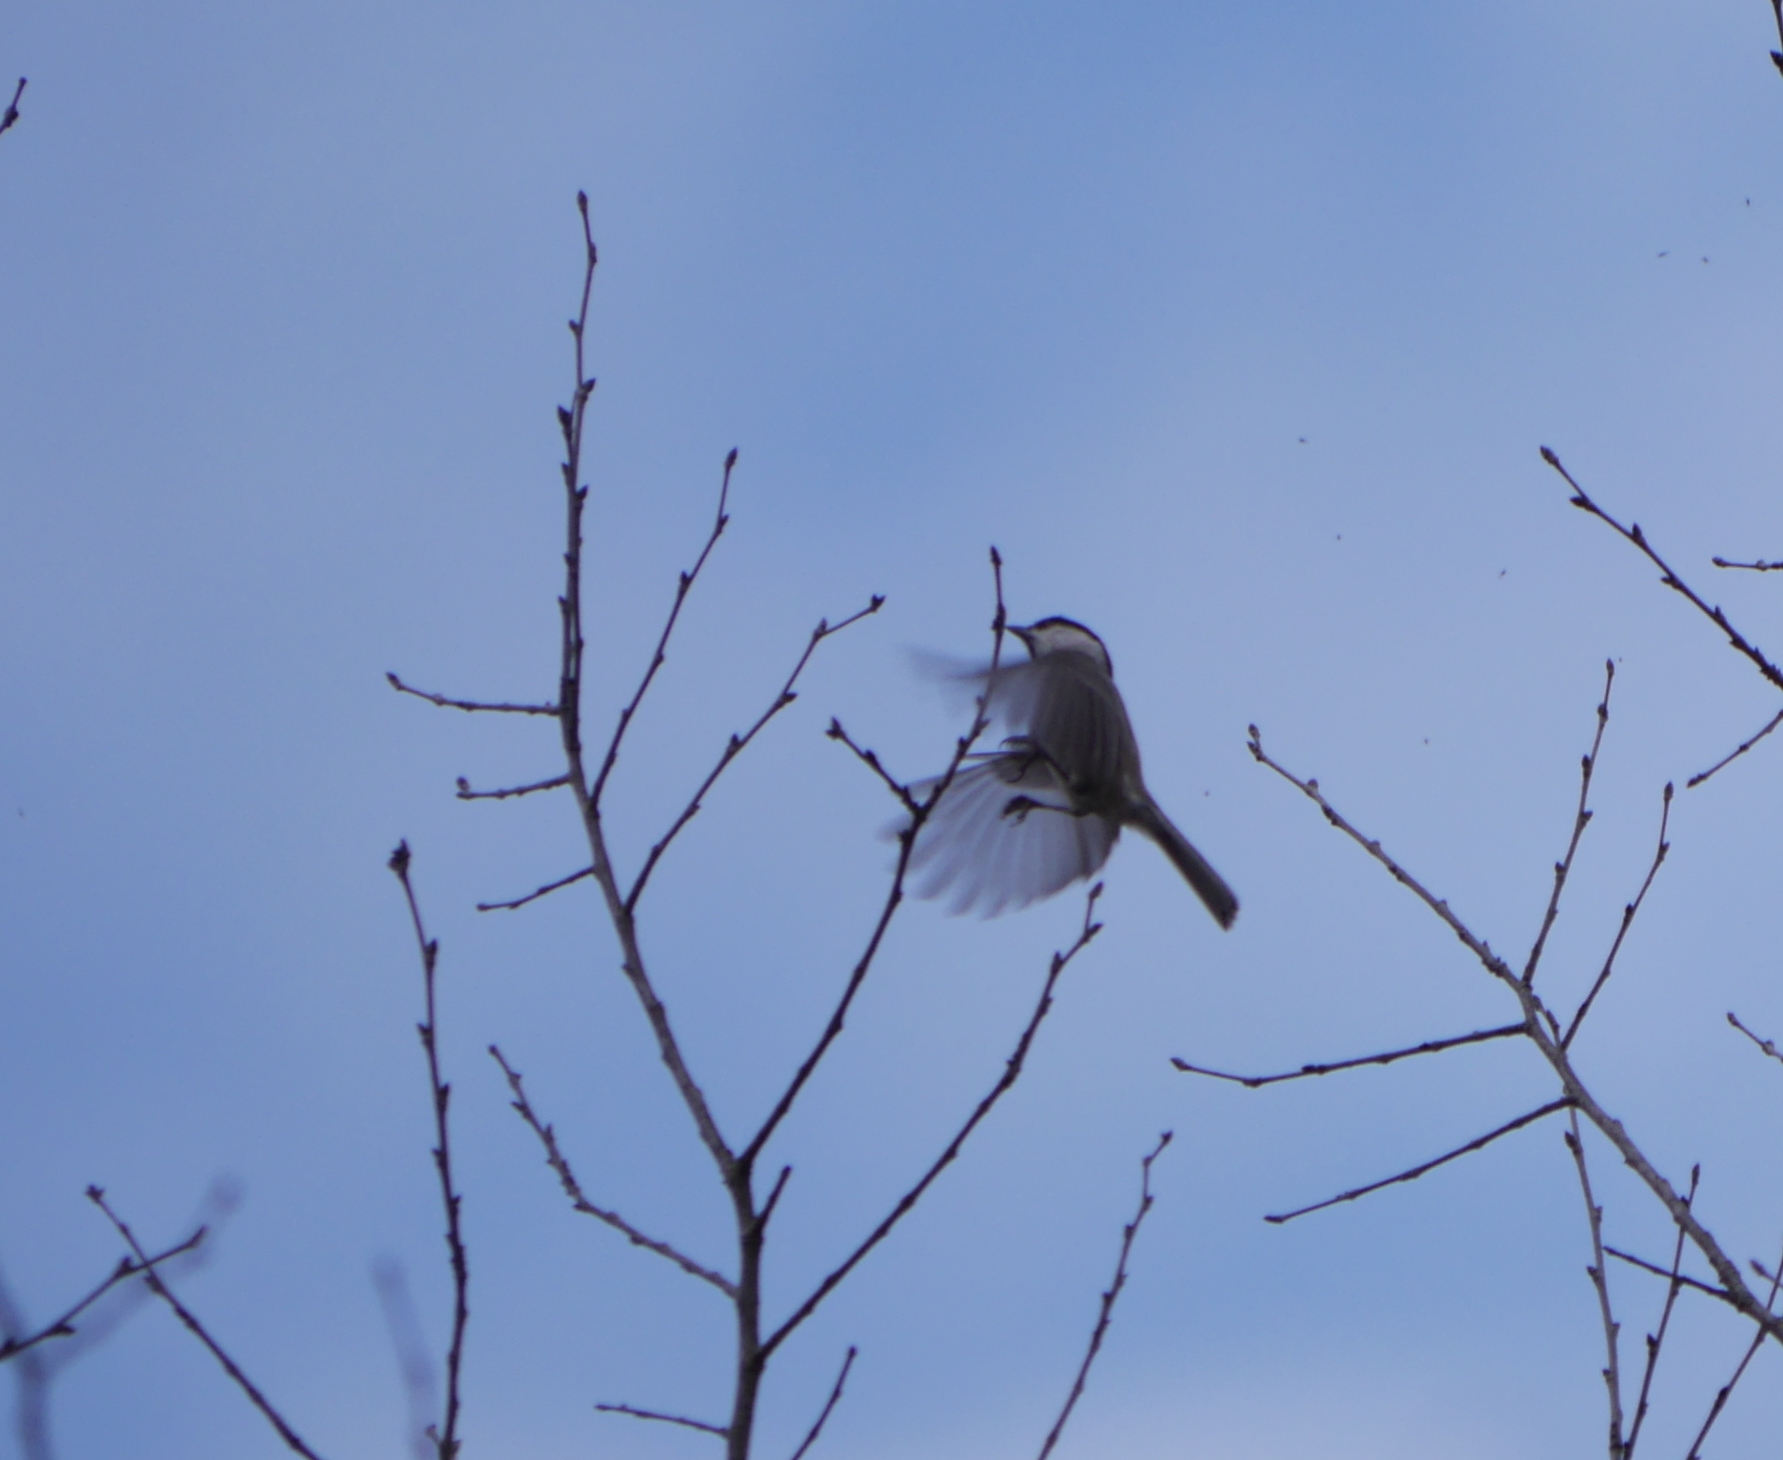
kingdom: Animalia
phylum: Chordata
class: Aves
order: Passeriformes
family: Paridae
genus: Poecile
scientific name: Poecile palustris
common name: Marsh tit
